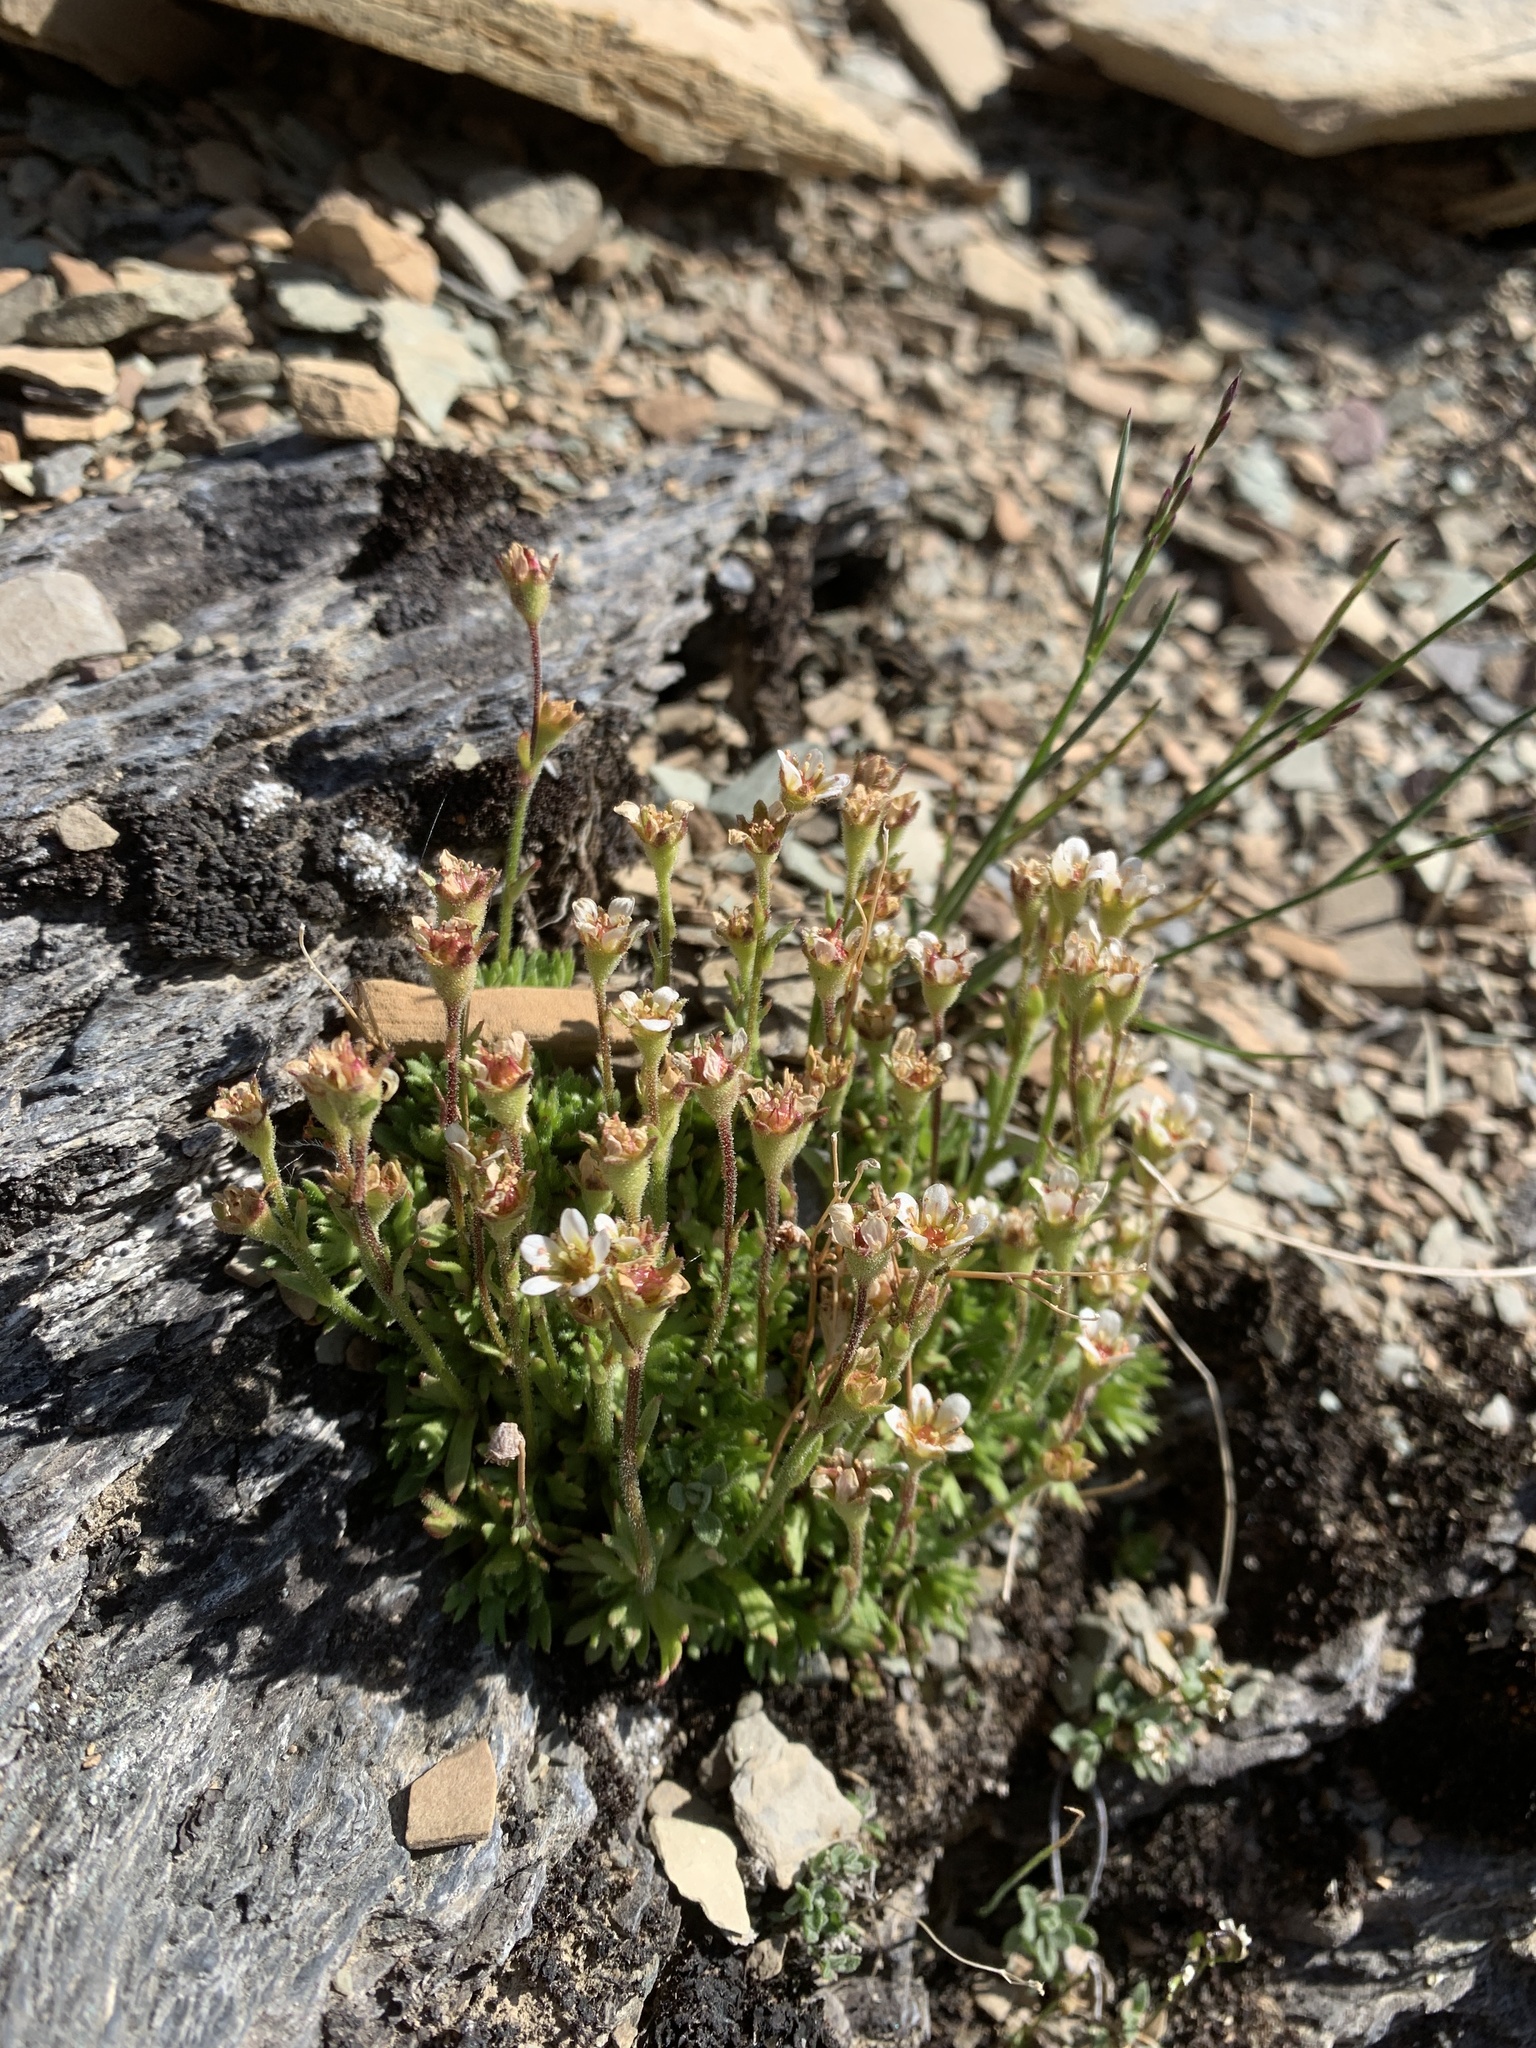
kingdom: Plantae
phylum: Tracheophyta
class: Magnoliopsida
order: Saxifragales
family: Saxifragaceae
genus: Saxifraga
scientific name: Saxifraga cespitosa
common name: Tufted saxifrage
